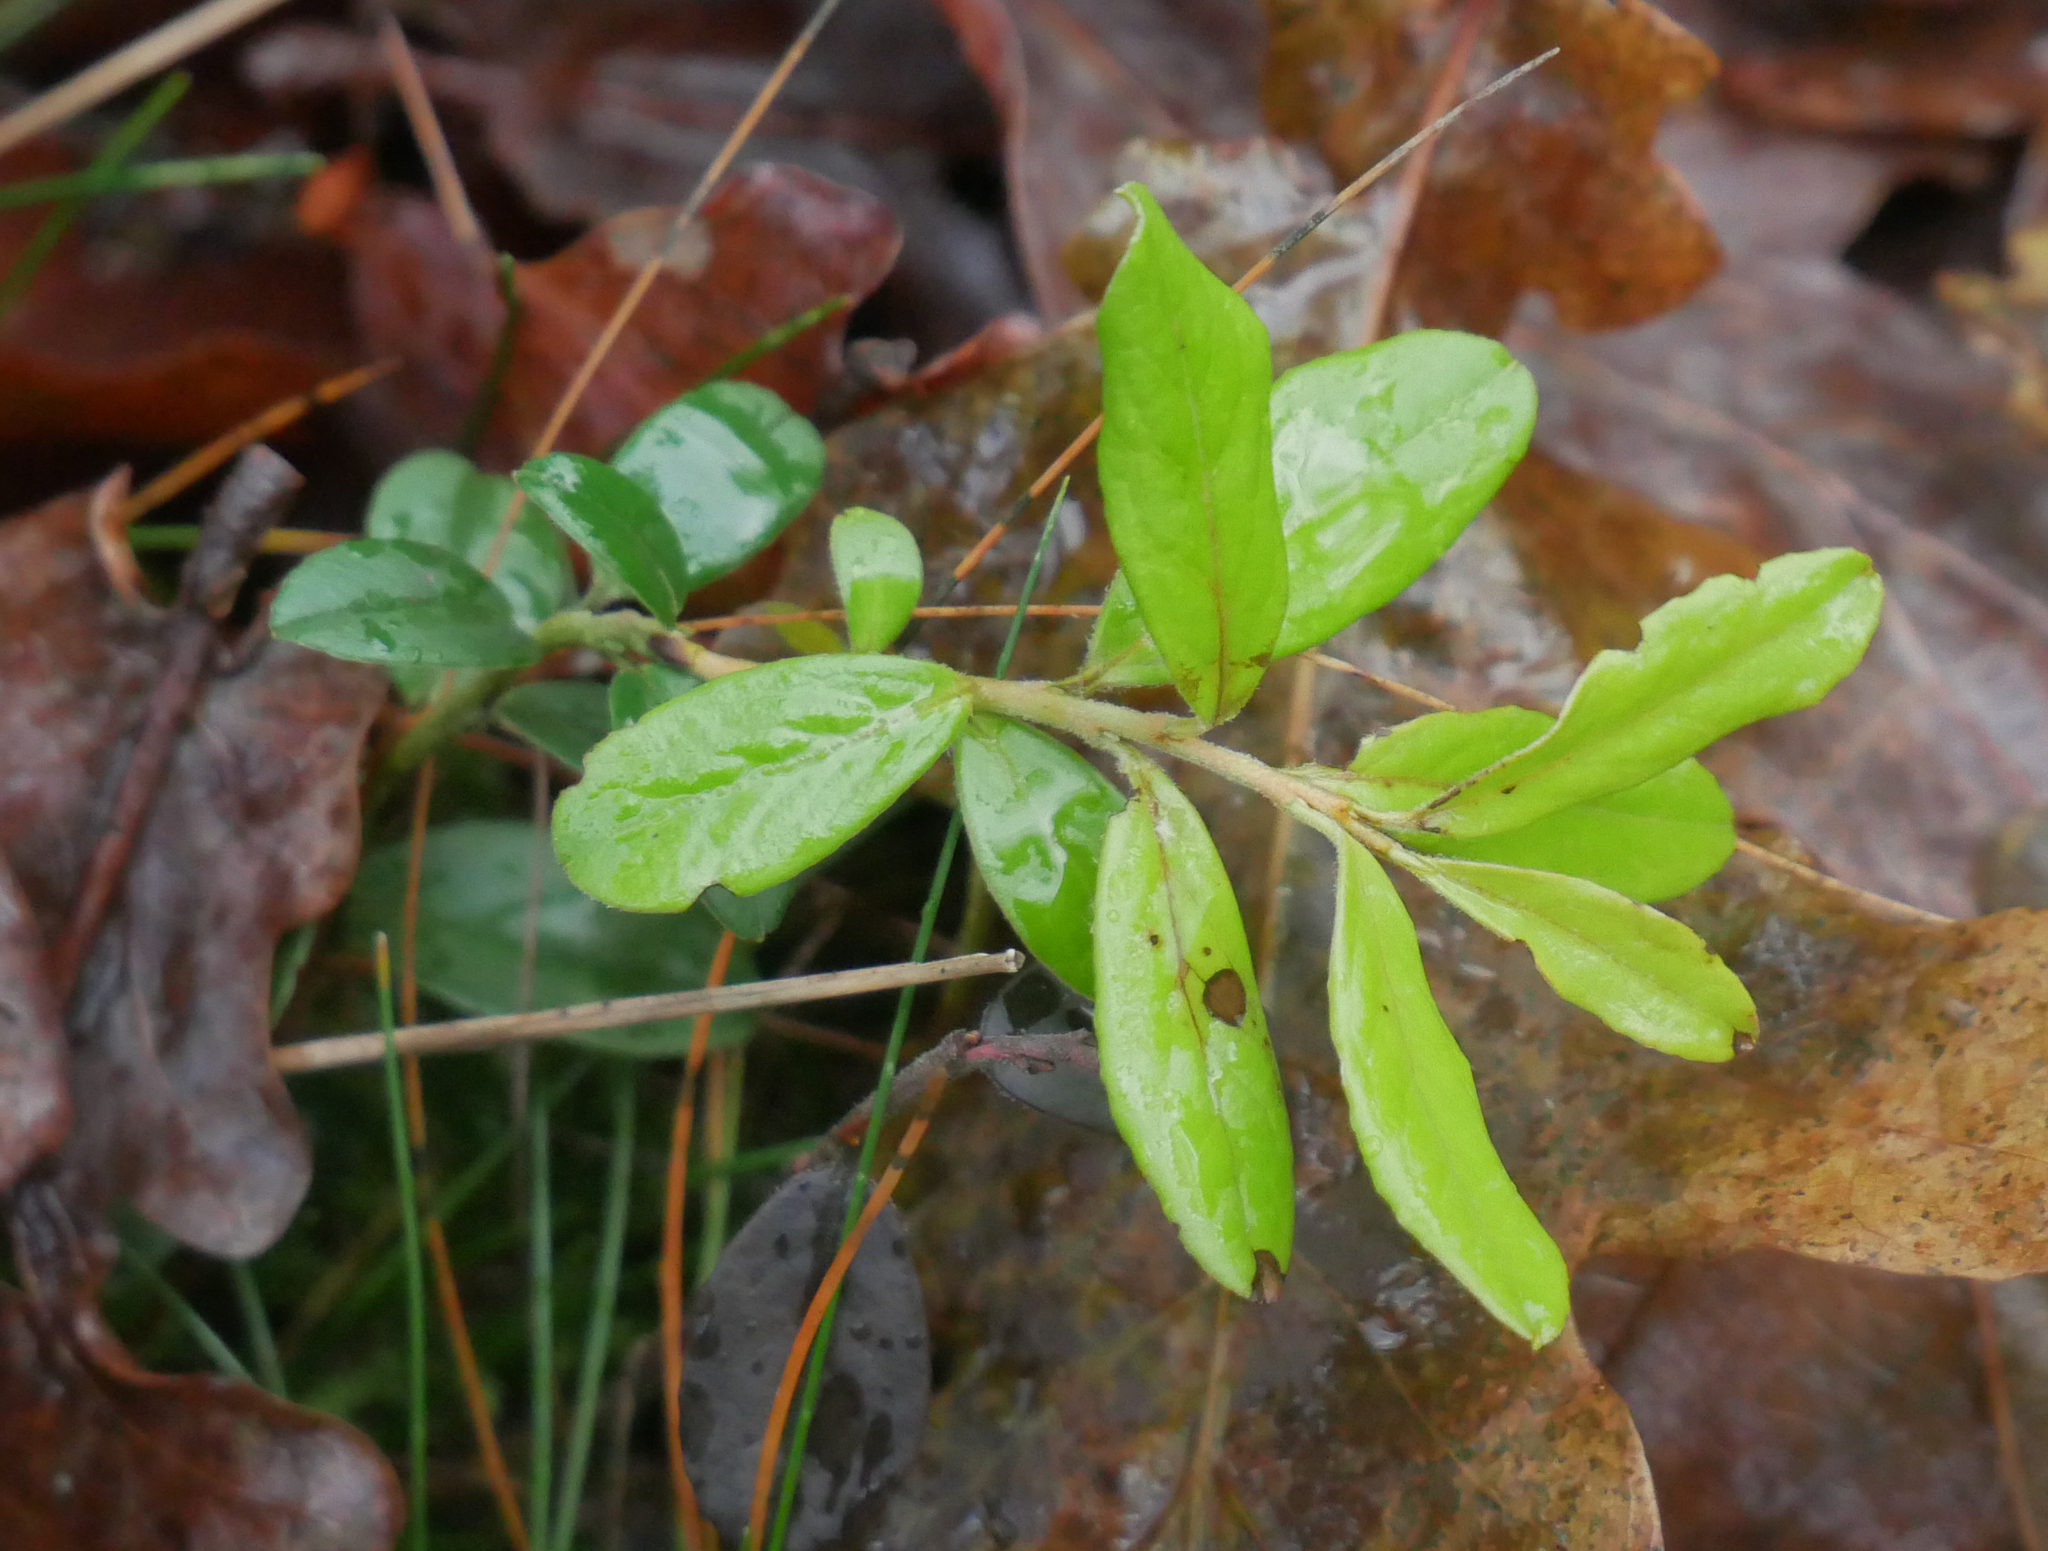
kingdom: Plantae
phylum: Tracheophyta
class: Magnoliopsida
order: Ericales
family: Ericaceae
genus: Vaccinium
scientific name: Vaccinium vitis-idaea
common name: Cowberry
